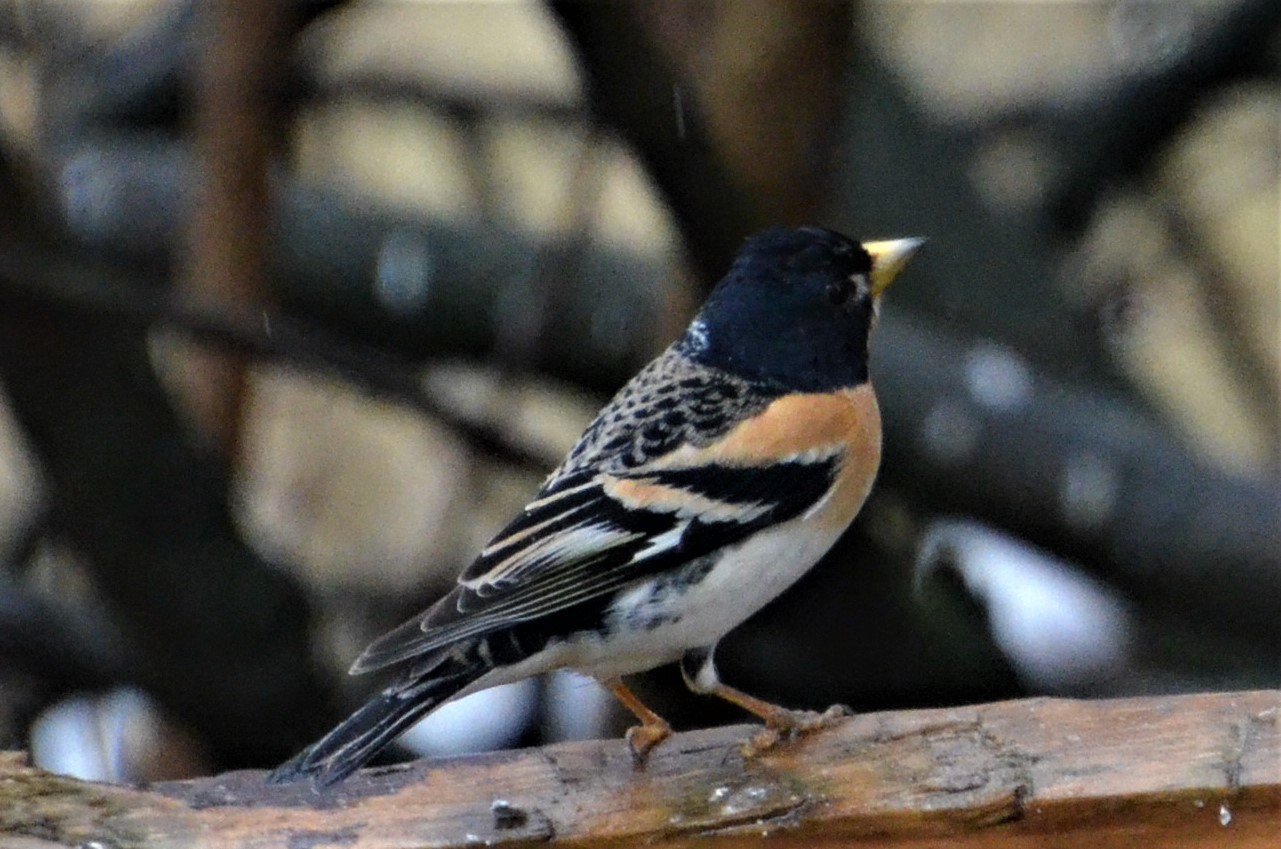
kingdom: Animalia
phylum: Chordata
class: Aves
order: Passeriformes
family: Fringillidae
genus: Fringilla
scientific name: Fringilla montifringilla
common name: Brambling
